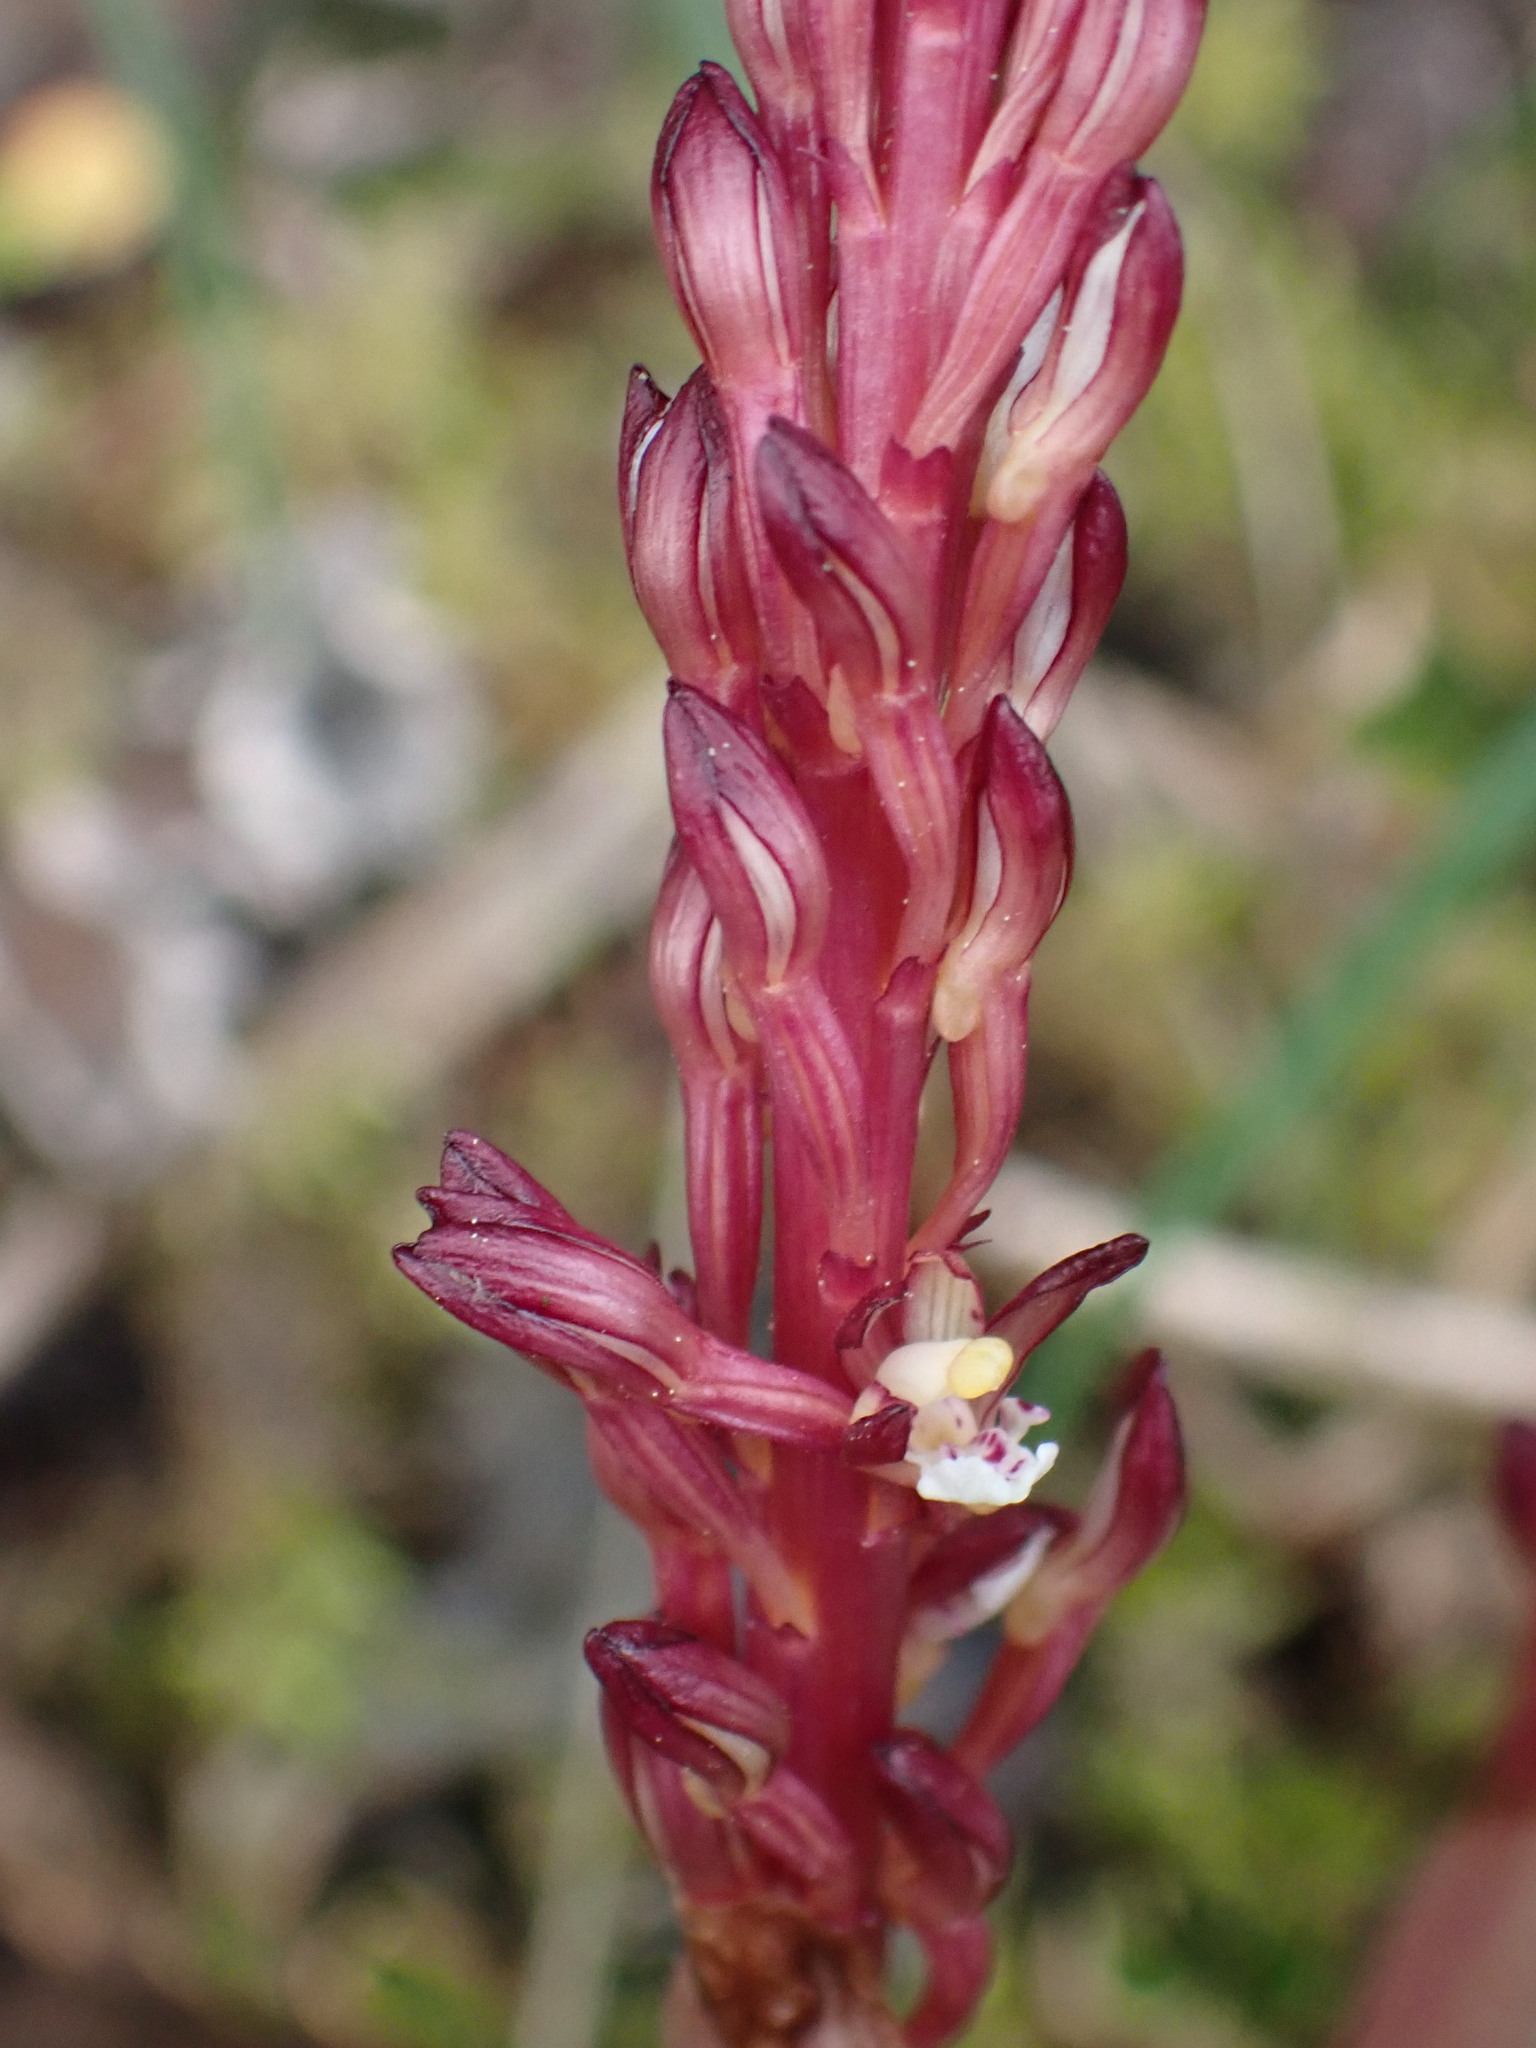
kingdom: Plantae
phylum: Tracheophyta
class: Liliopsida
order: Asparagales
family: Orchidaceae
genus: Corallorhiza
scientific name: Corallorhiza maculata
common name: Spotted coralroot
